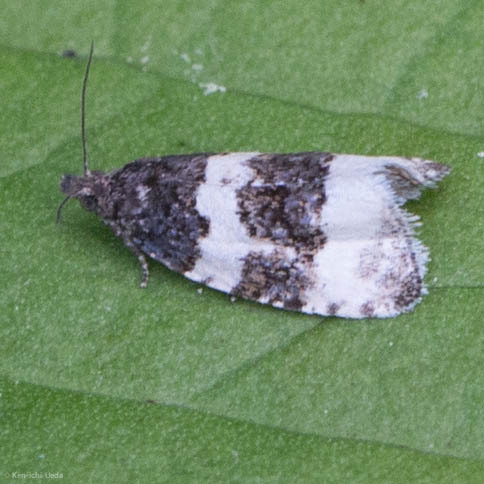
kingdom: Animalia
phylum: Arthropoda
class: Insecta
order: Lepidoptera
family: Tortricidae
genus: Olethreutes
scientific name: Olethreutes bipartitana
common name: Divided olethreutes moth
